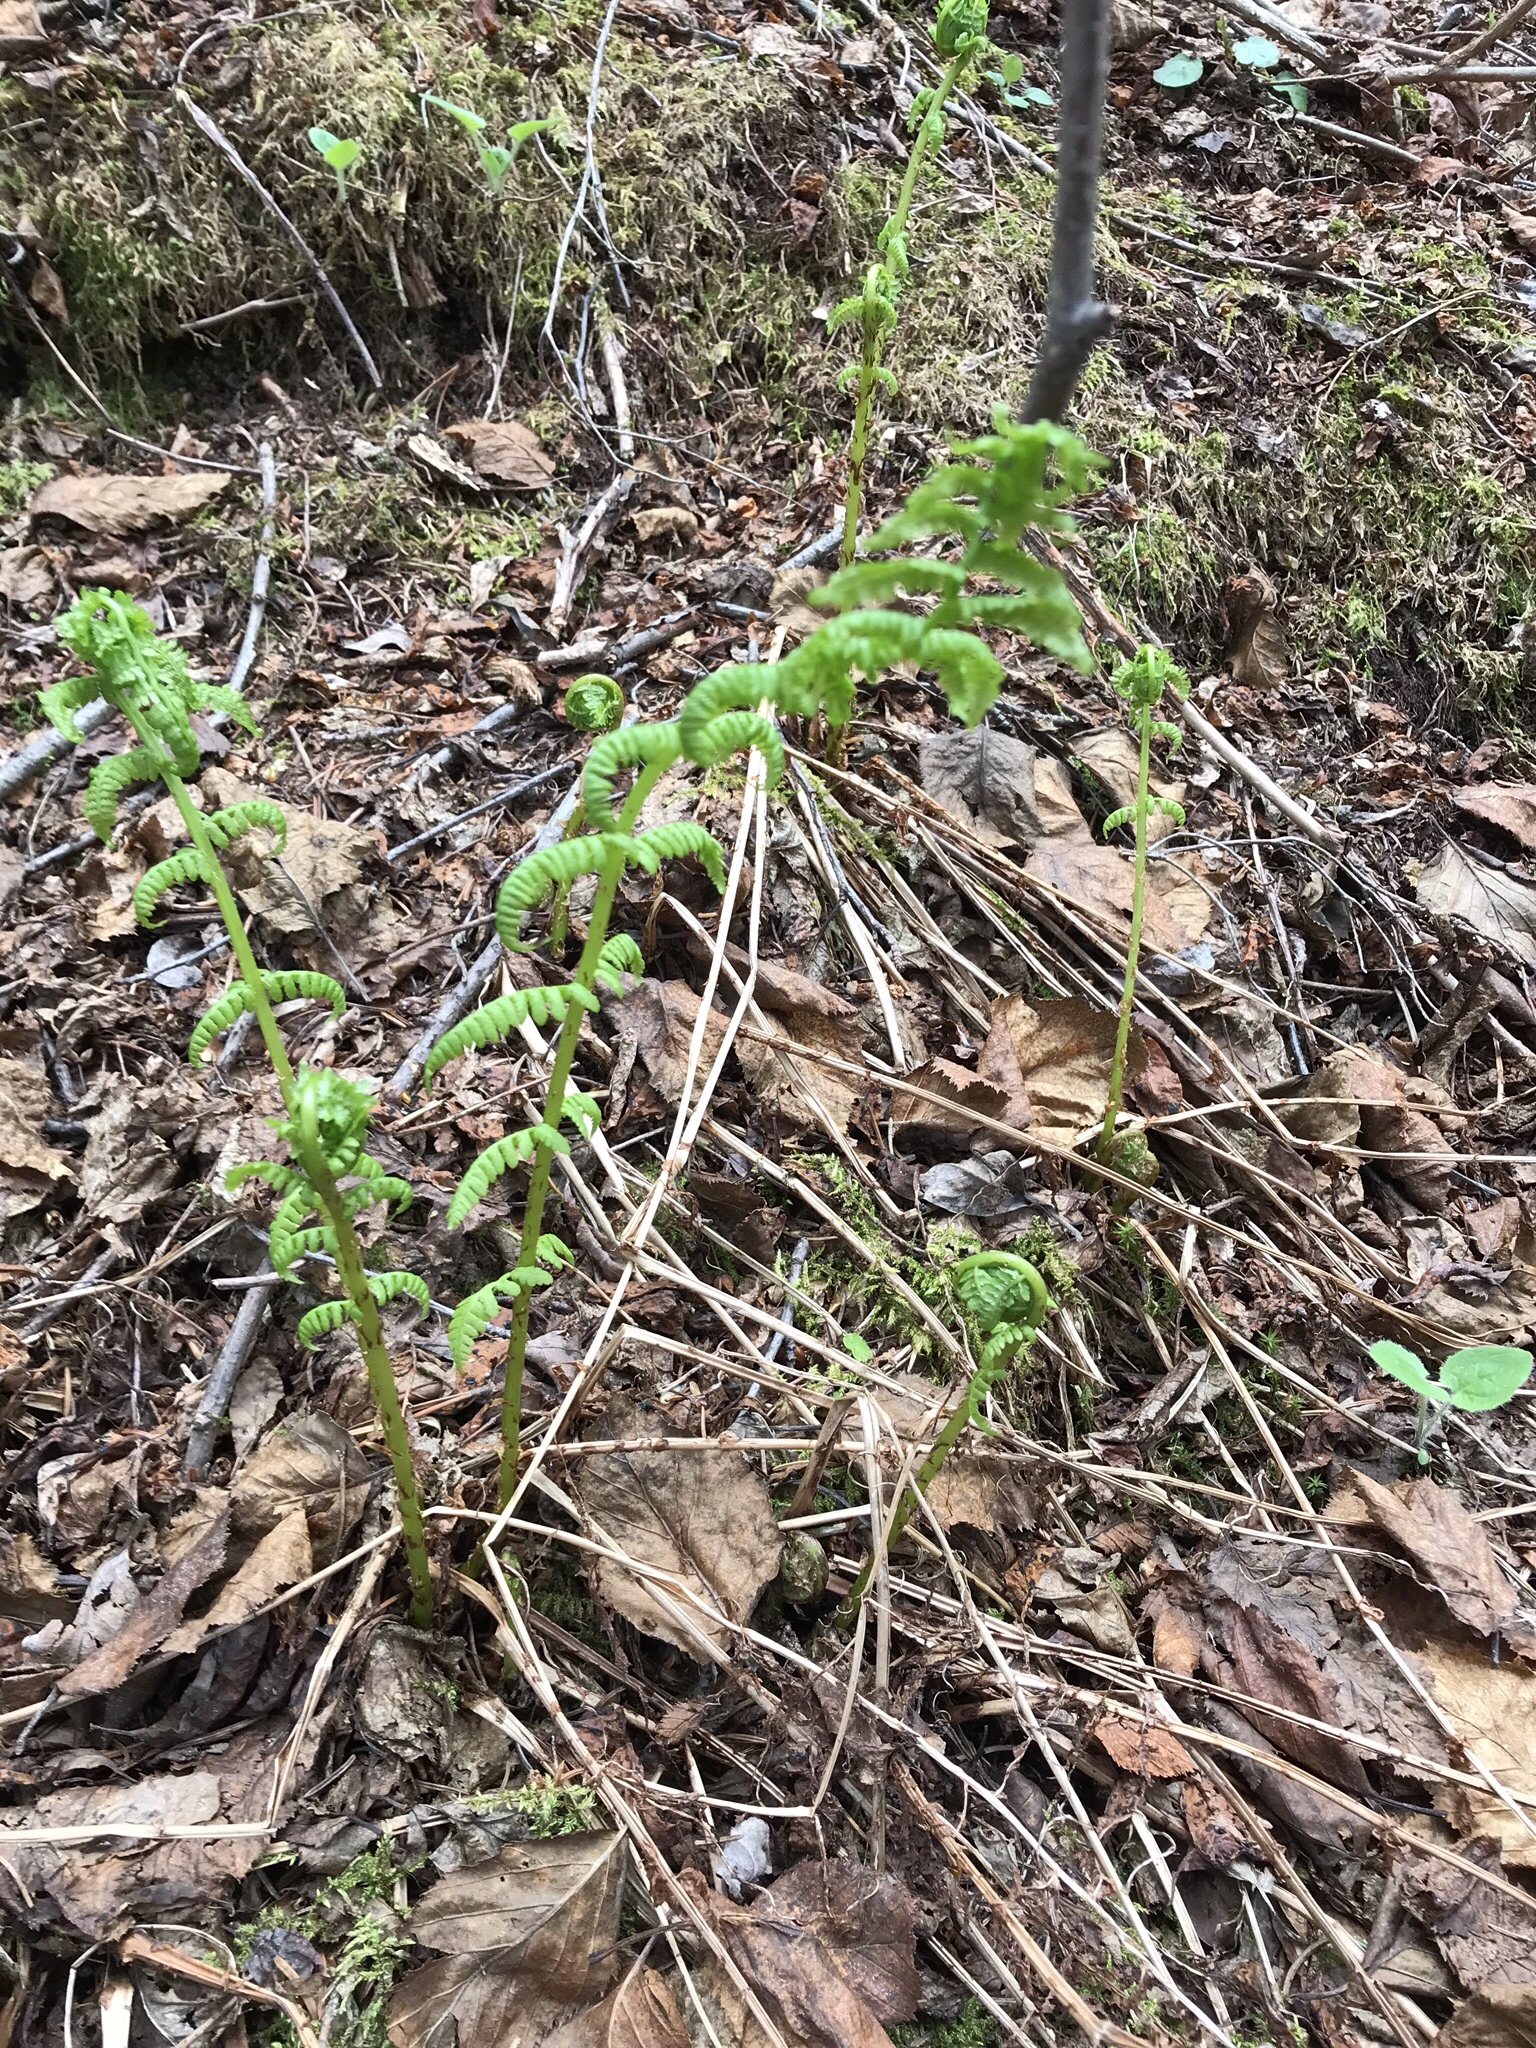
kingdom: Plantae
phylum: Tracheophyta
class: Polypodiopsida
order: Polypodiales
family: Athyriaceae
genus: Athyrium
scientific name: Athyrium filix-femina
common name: Lady fern
